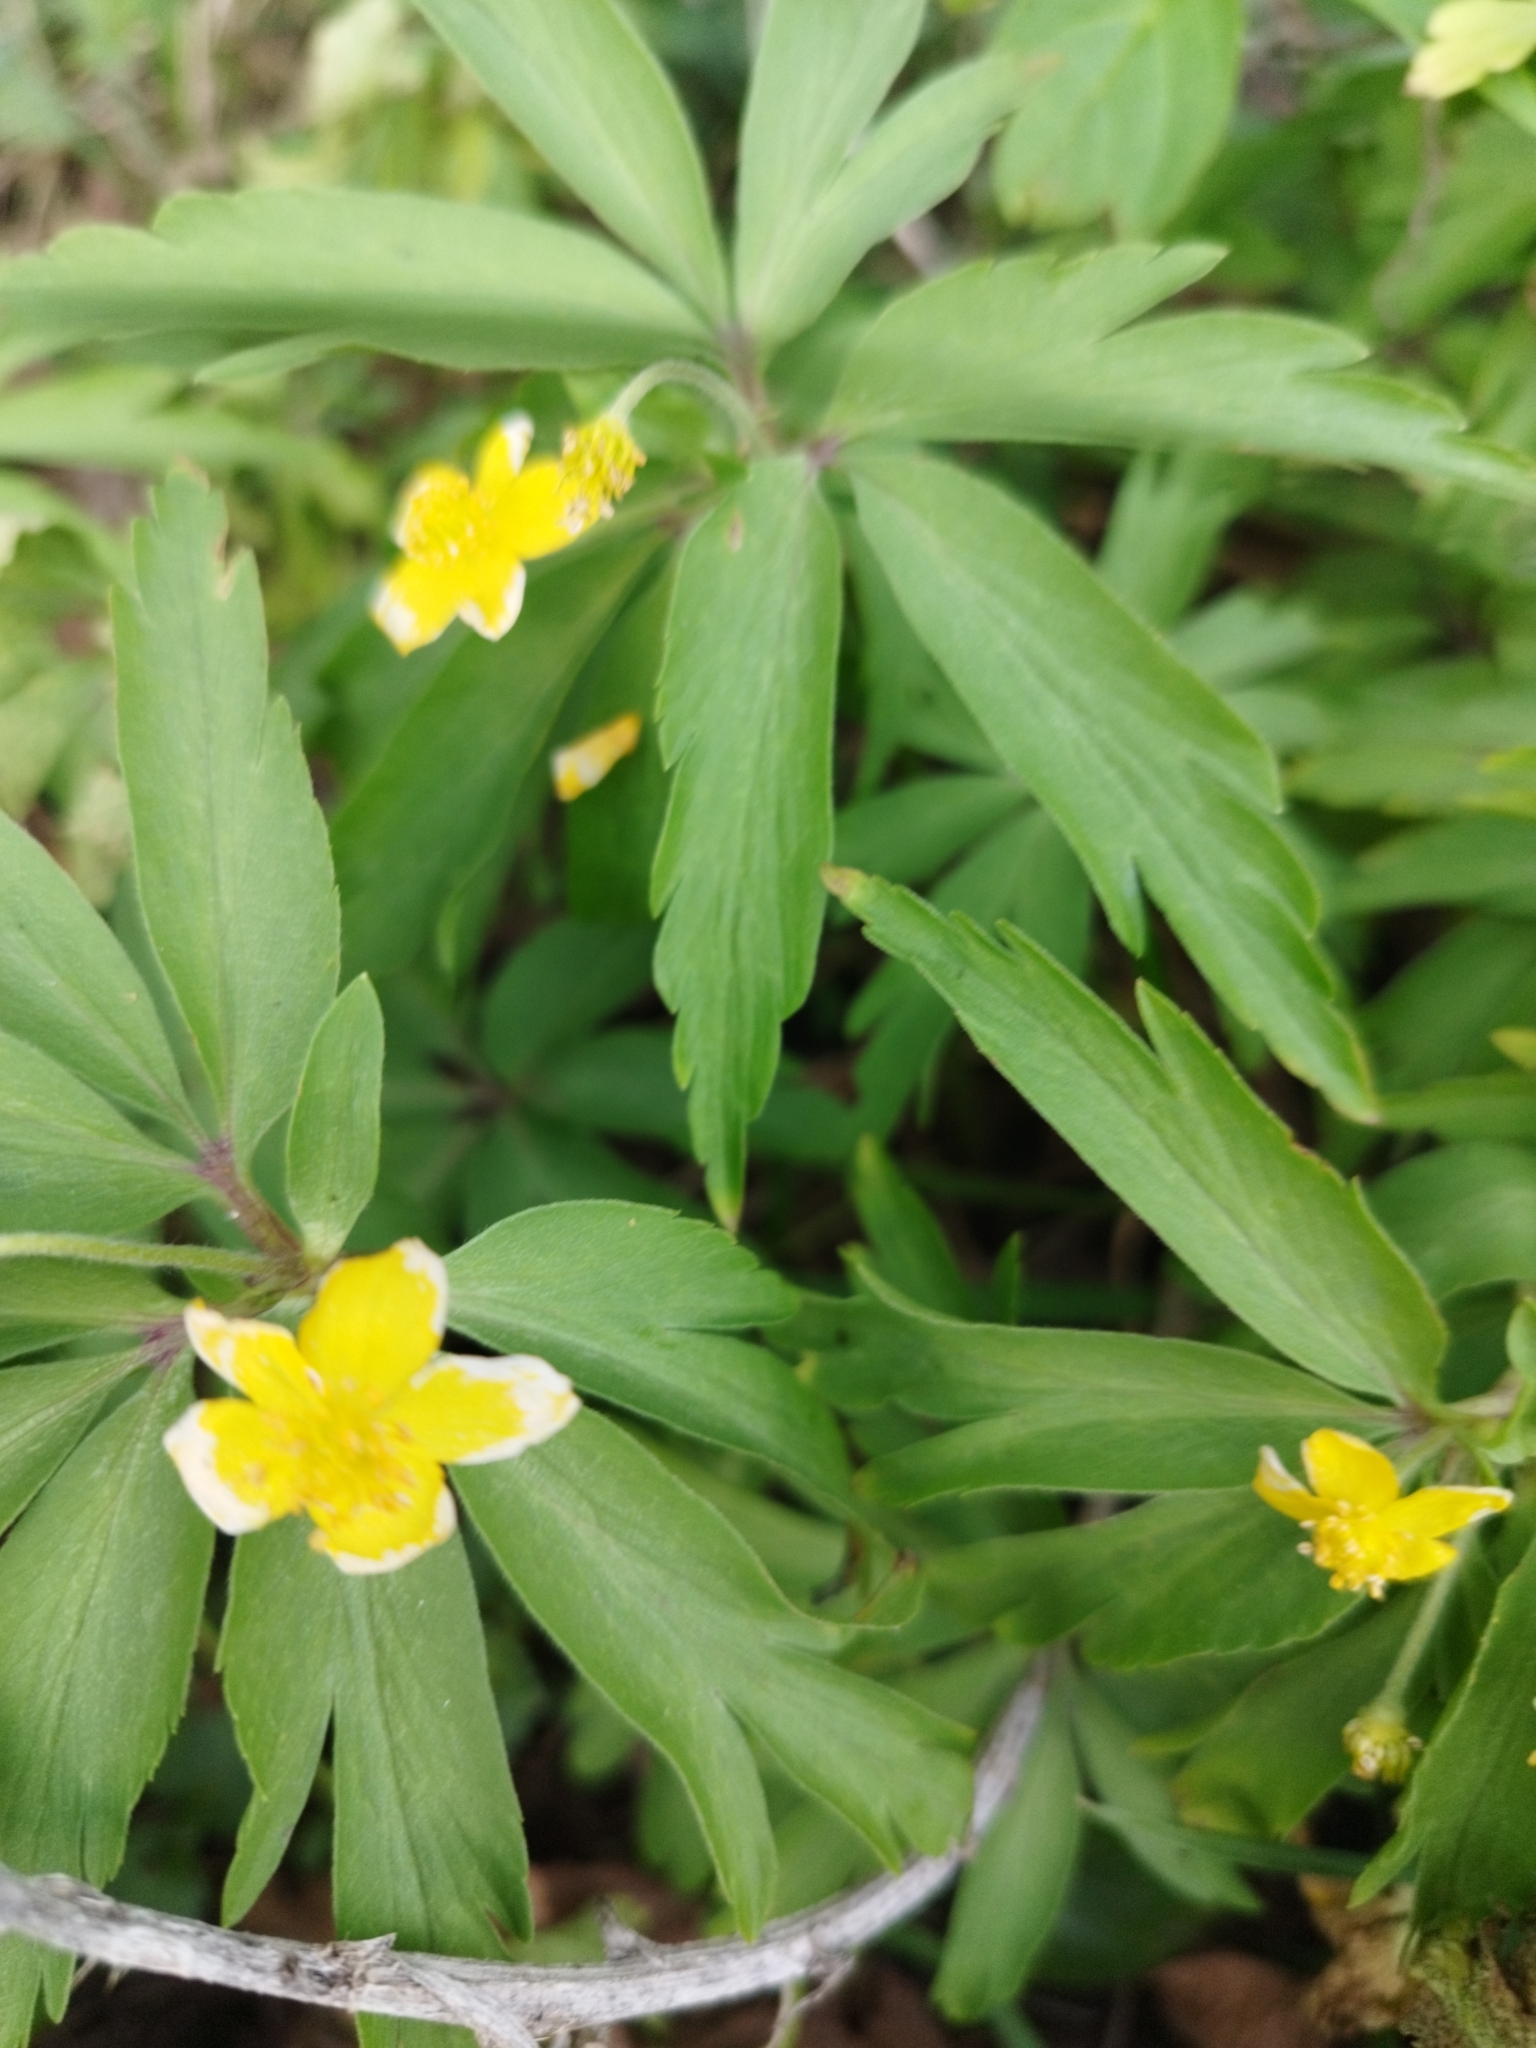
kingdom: Plantae
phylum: Tracheophyta
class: Magnoliopsida
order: Ranunculales
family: Ranunculaceae
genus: Anemone
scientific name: Anemone ranunculoides
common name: Yellow anemone
